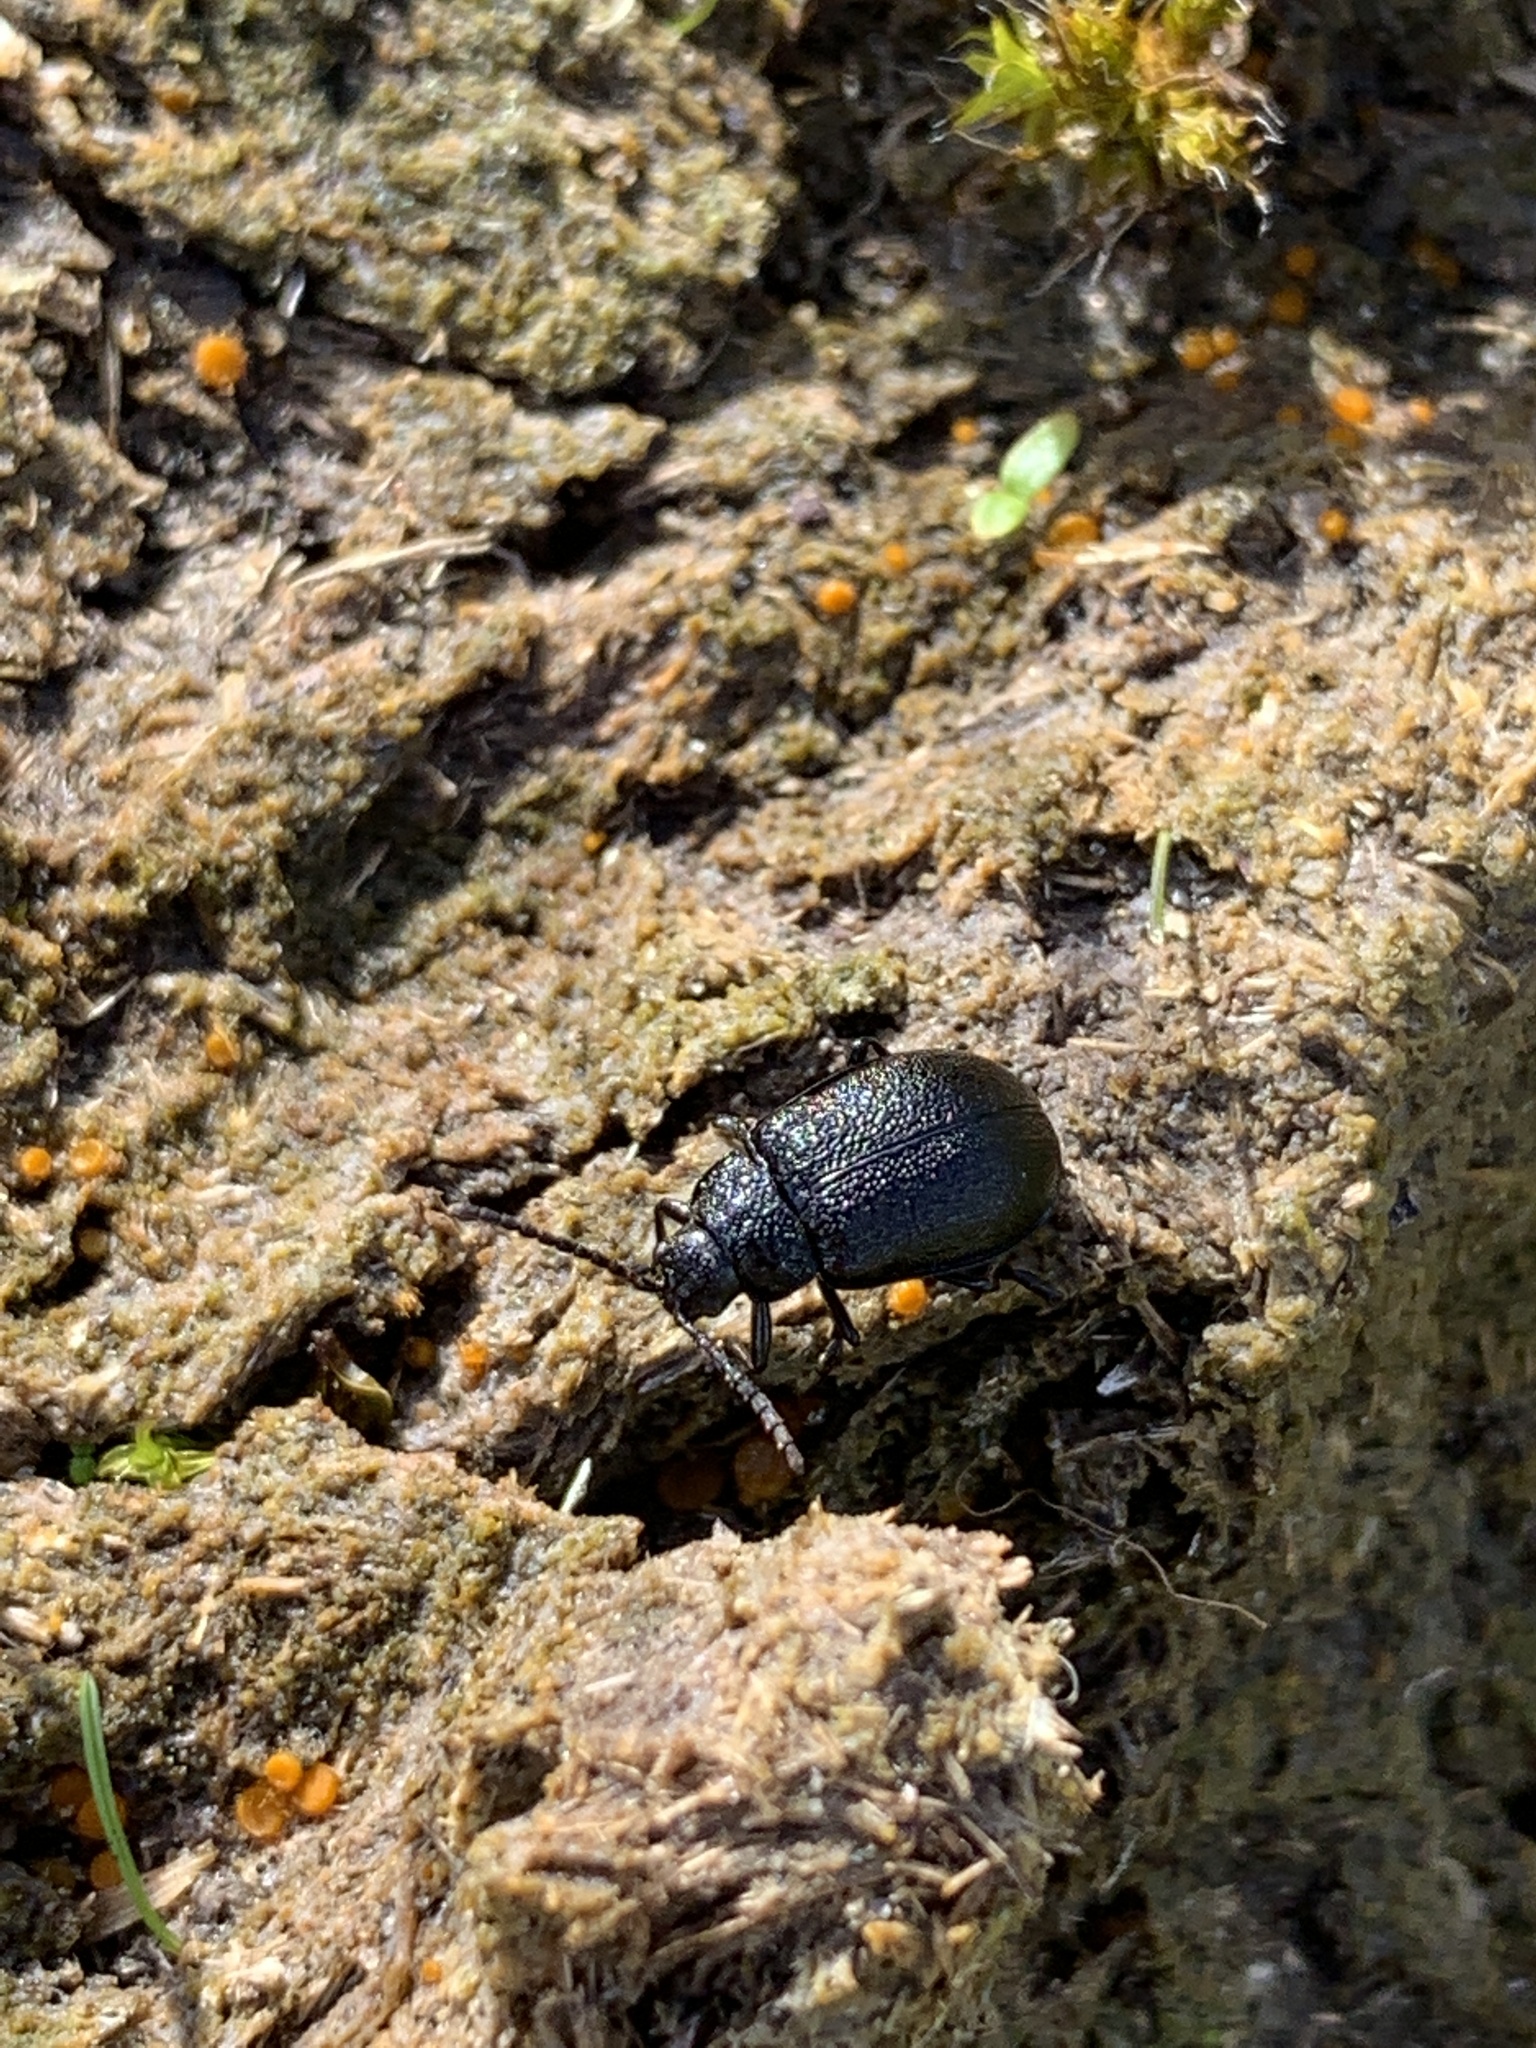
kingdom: Animalia
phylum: Arthropoda
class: Insecta
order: Coleoptera
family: Chrysomelidae
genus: Galeruca
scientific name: Galeruca tanaceti
